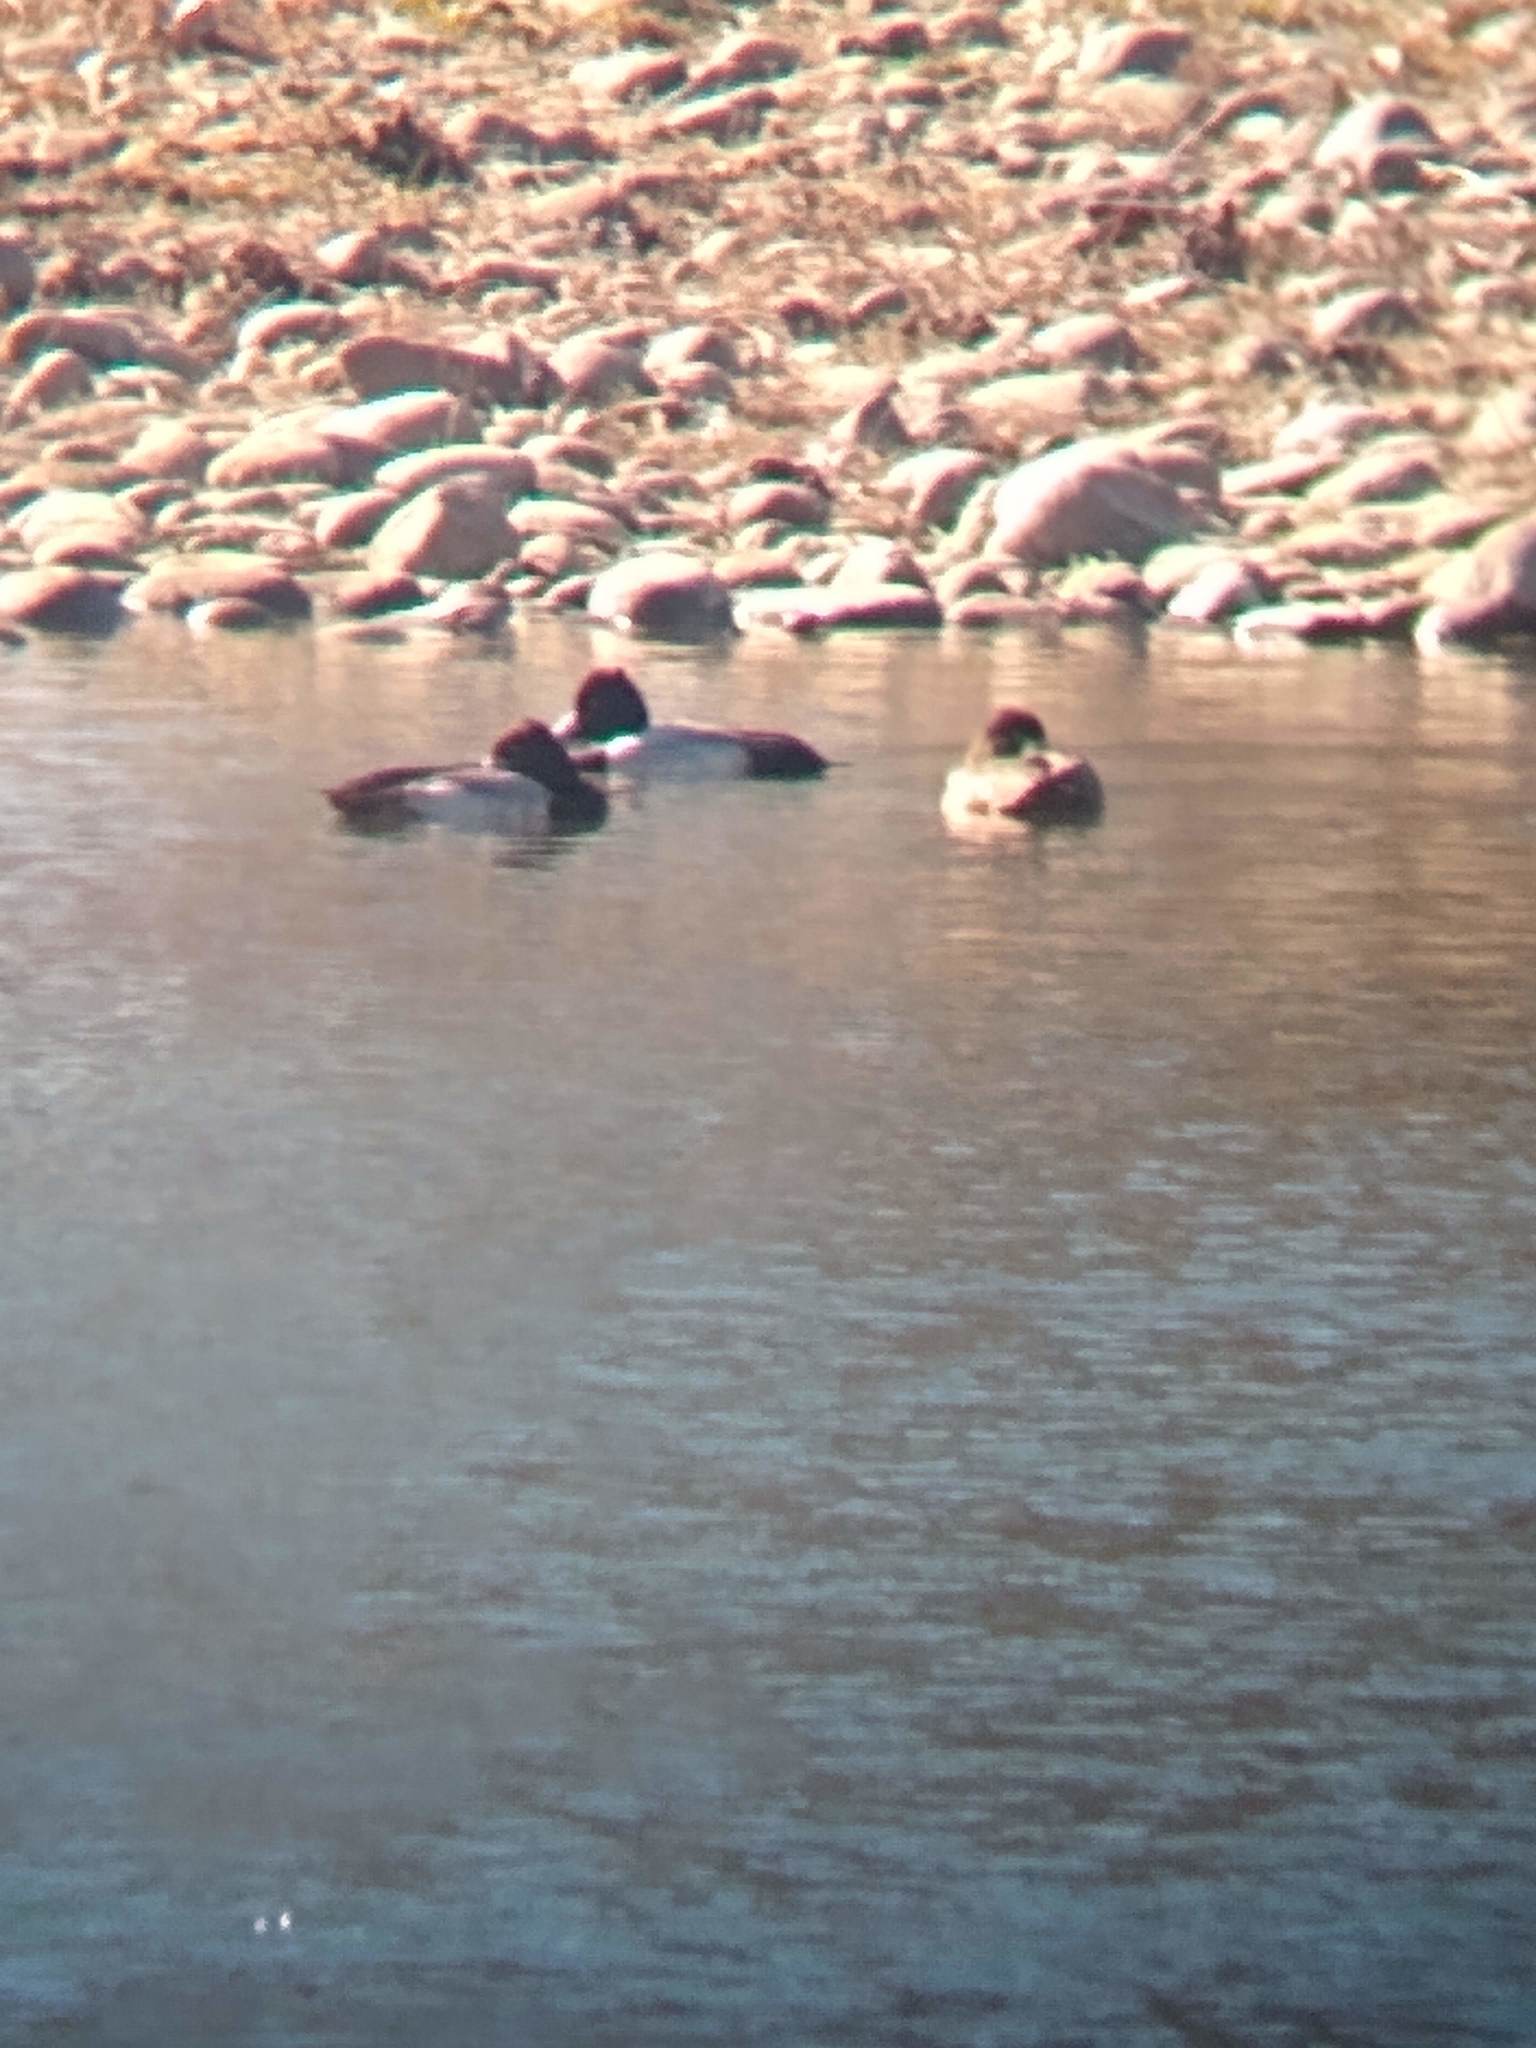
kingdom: Animalia
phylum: Chordata
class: Aves
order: Anseriformes
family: Anatidae
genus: Aythya
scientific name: Aythya affinis
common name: Lesser scaup
